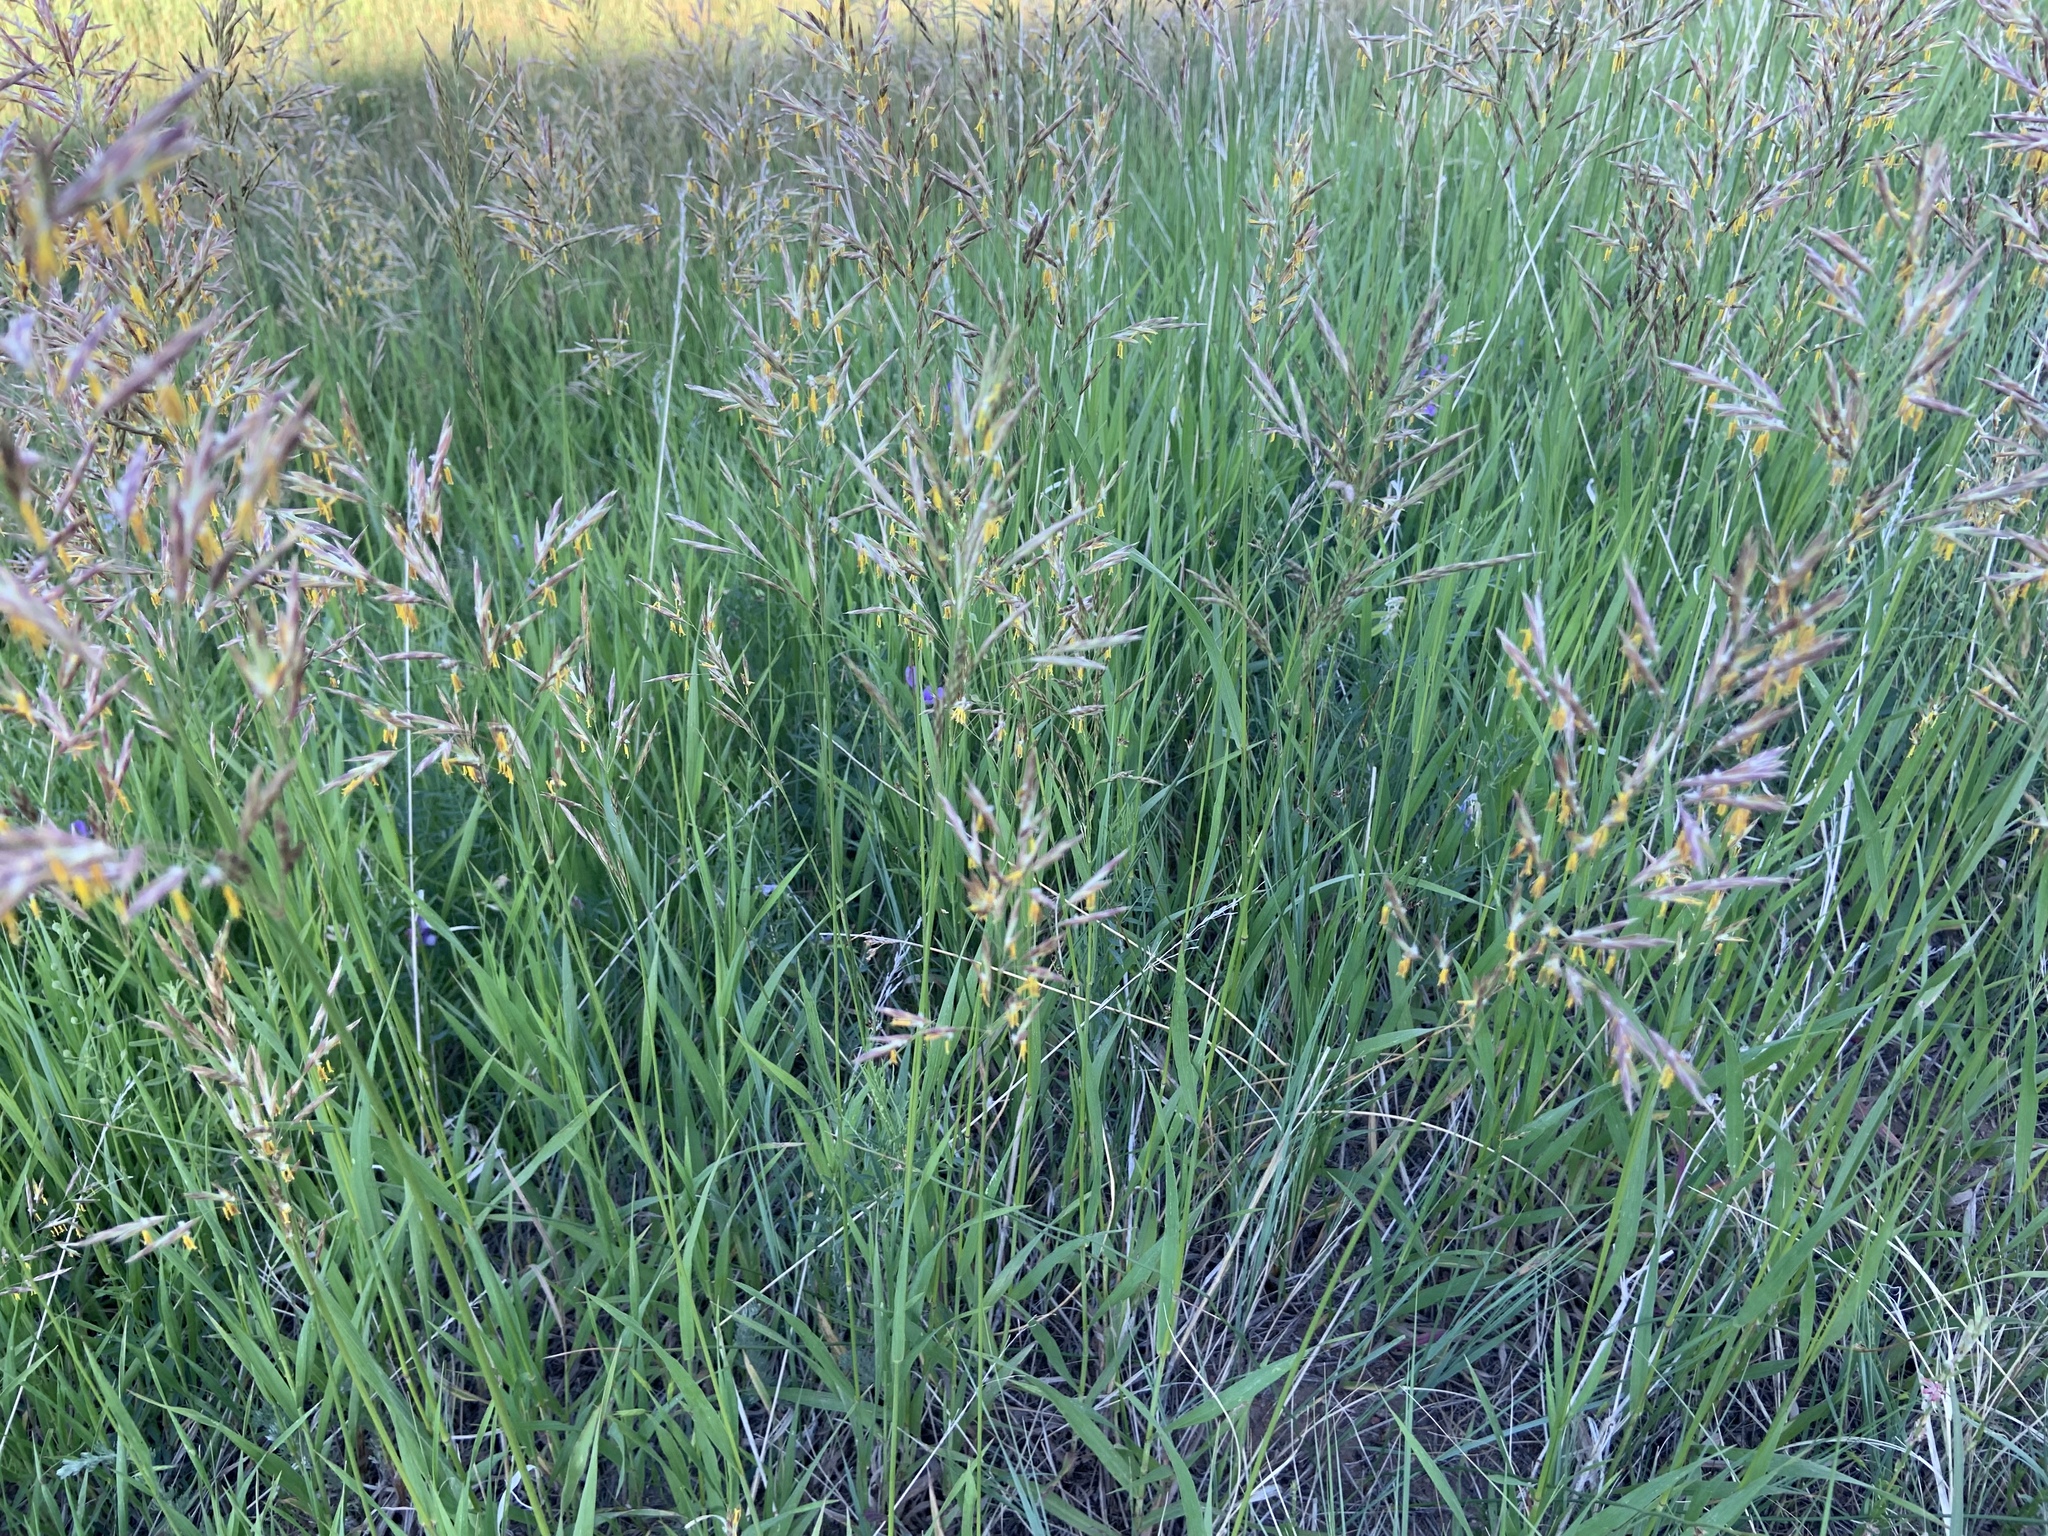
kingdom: Plantae
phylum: Tracheophyta
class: Liliopsida
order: Poales
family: Poaceae
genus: Bromus
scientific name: Bromus inermis
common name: Smooth brome
